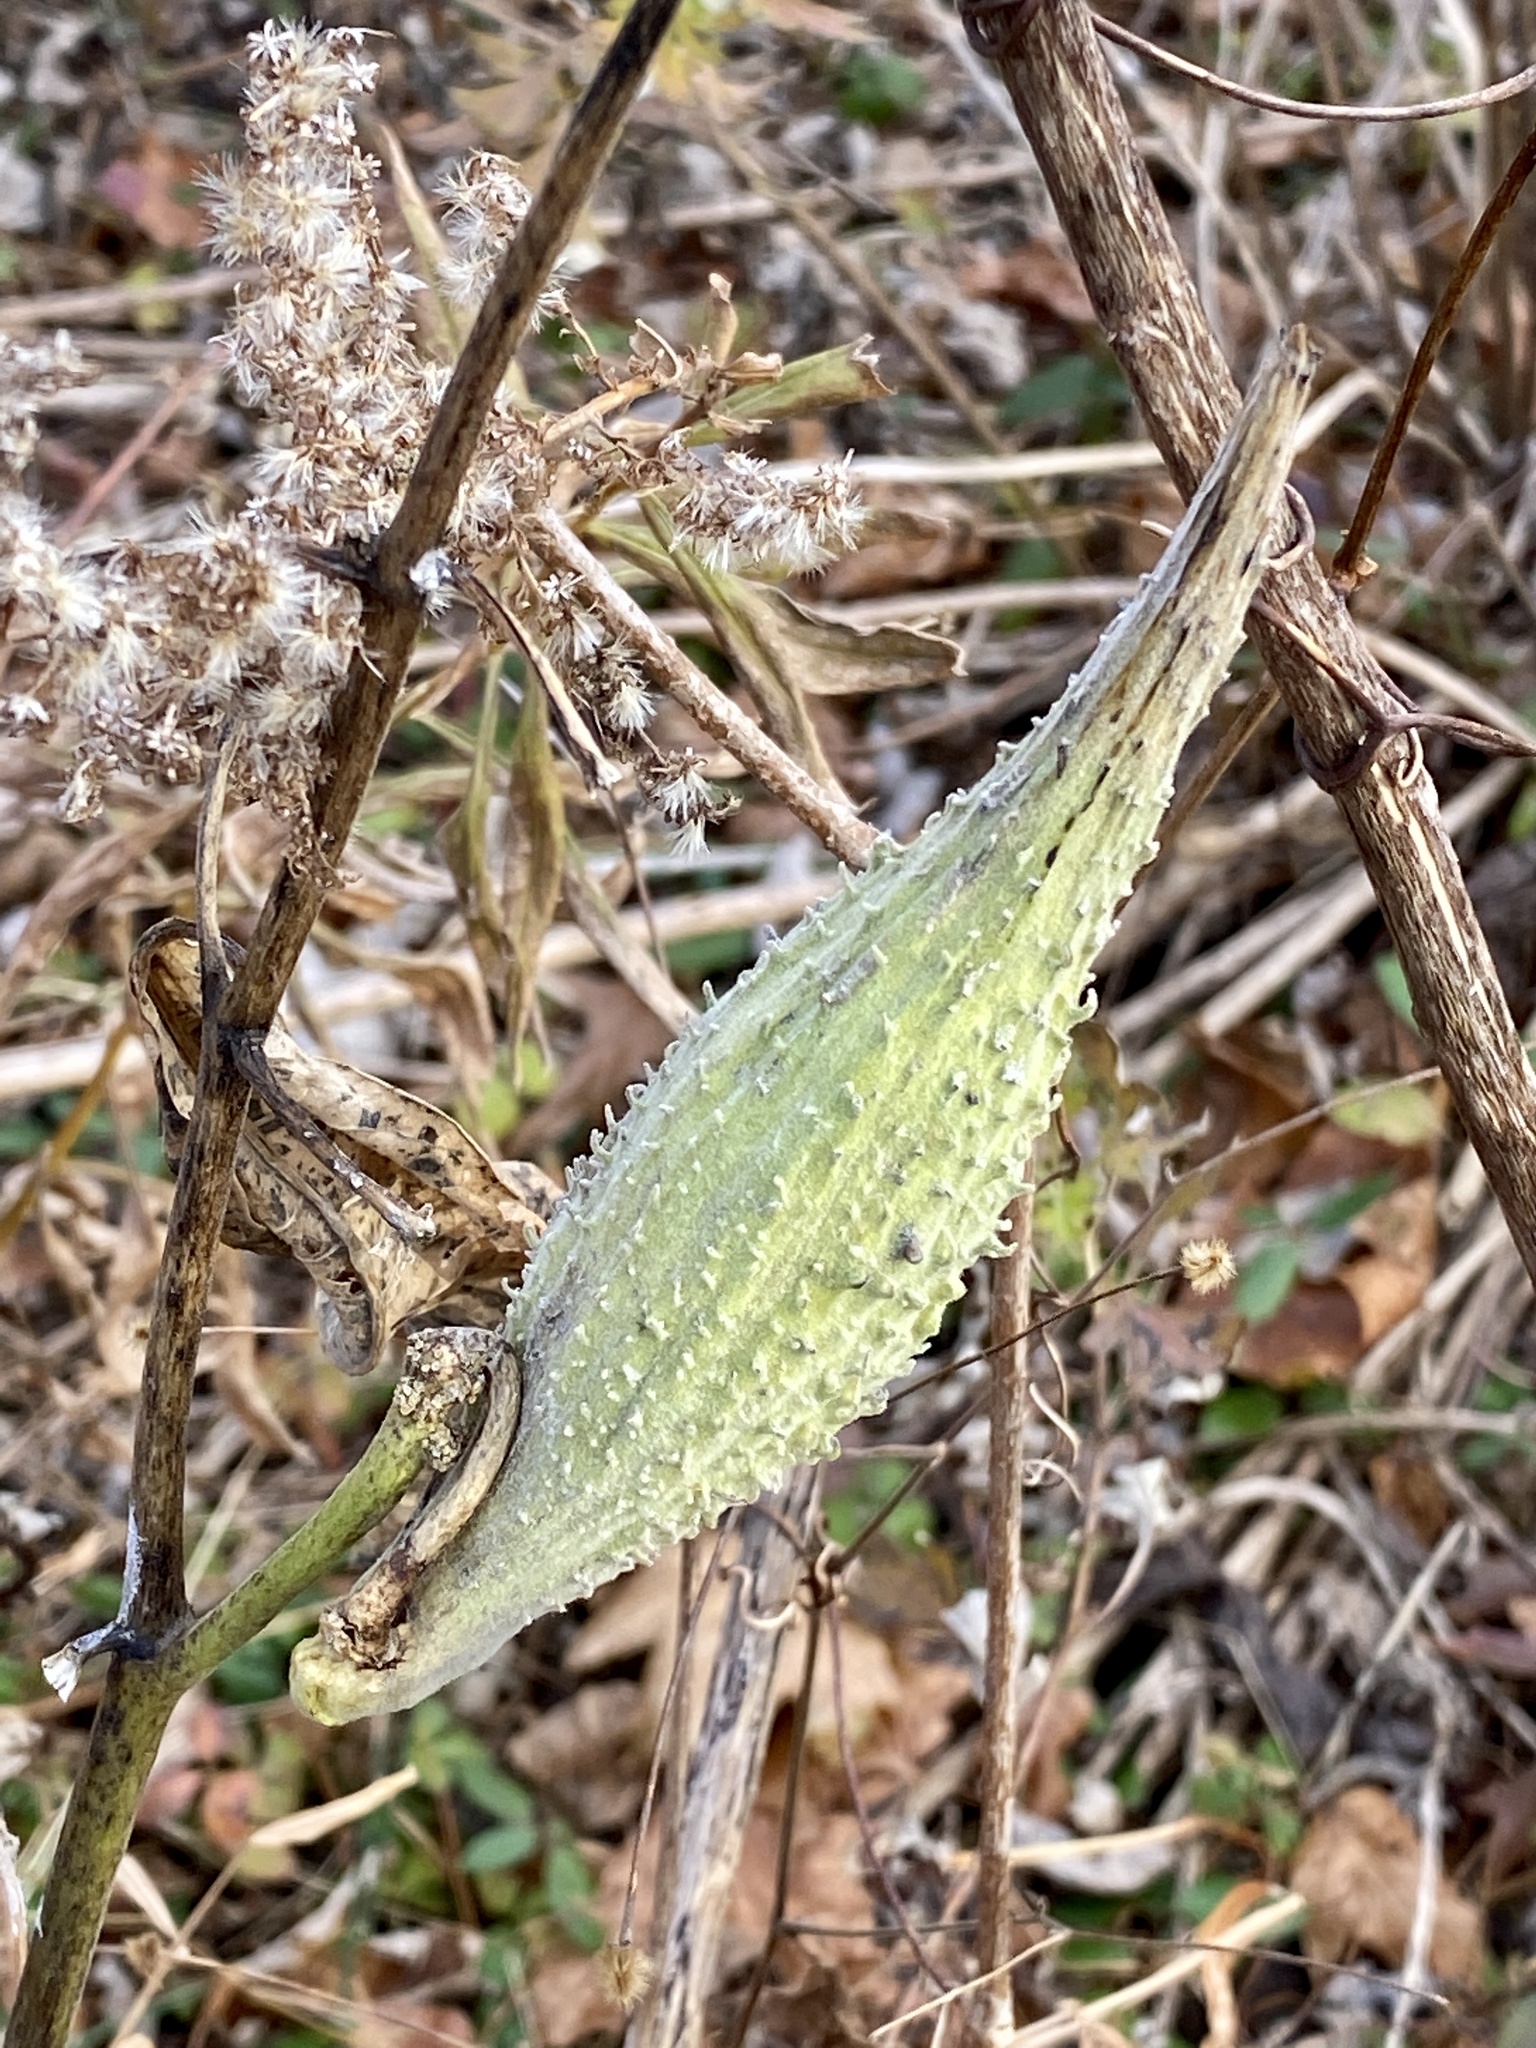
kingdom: Plantae
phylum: Tracheophyta
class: Magnoliopsida
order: Gentianales
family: Apocynaceae
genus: Asclepias
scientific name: Asclepias syriaca
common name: Common milkweed
